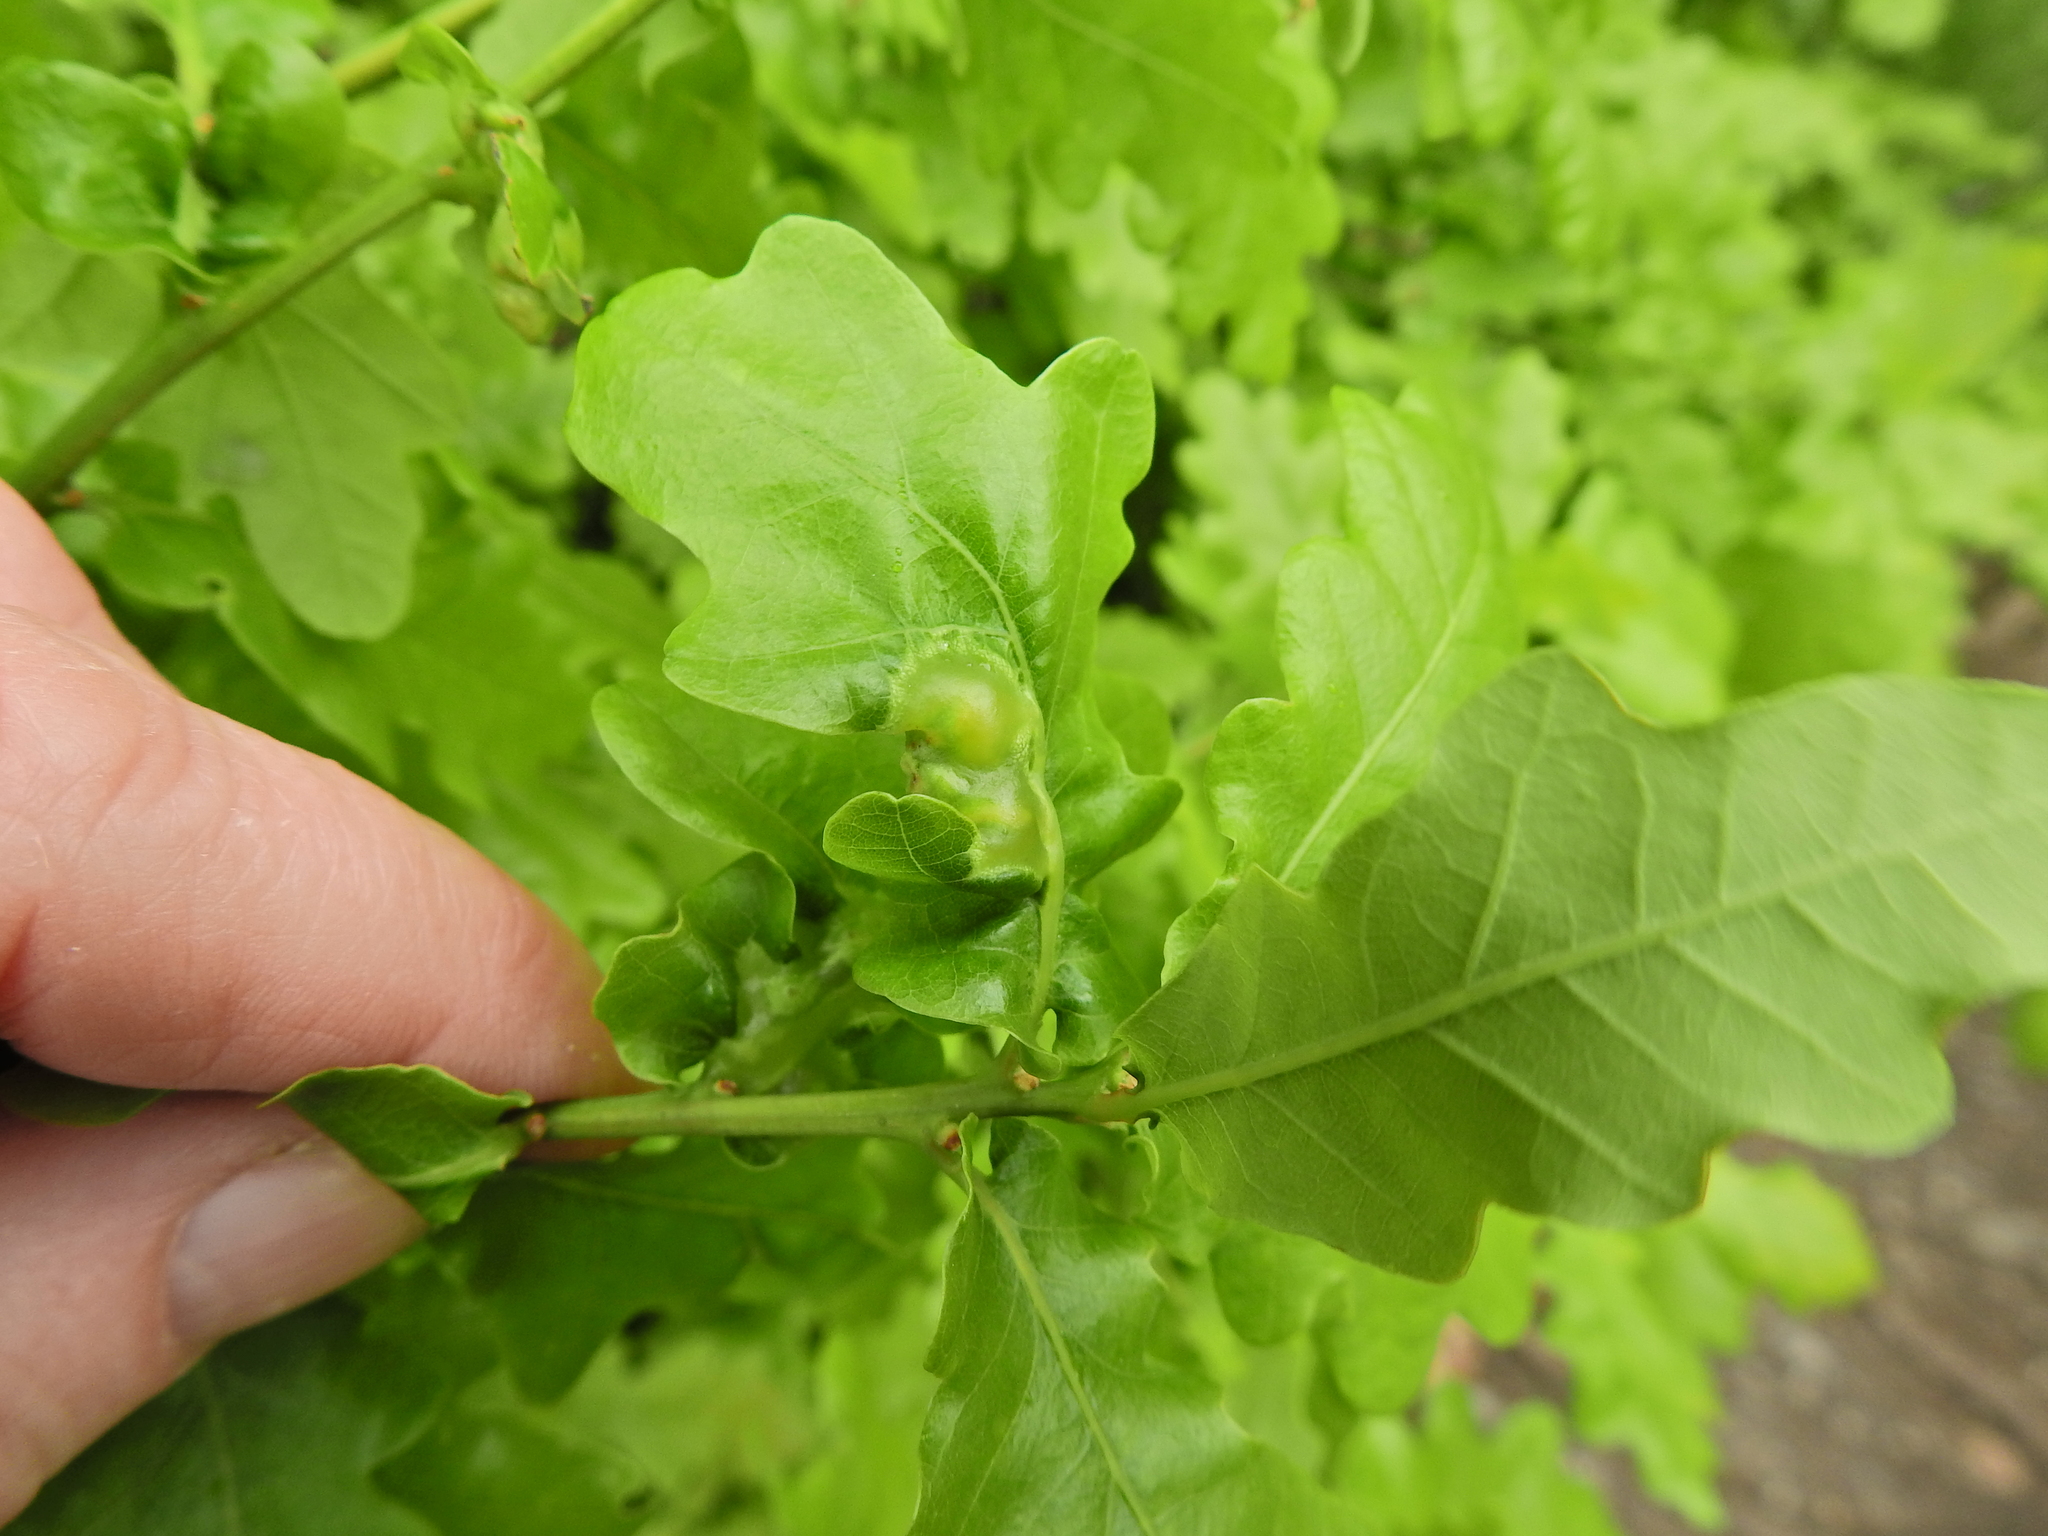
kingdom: Animalia
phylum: Arthropoda
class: Insecta
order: Hymenoptera
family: Cynipidae
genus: Andricus
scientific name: Andricus curvator
